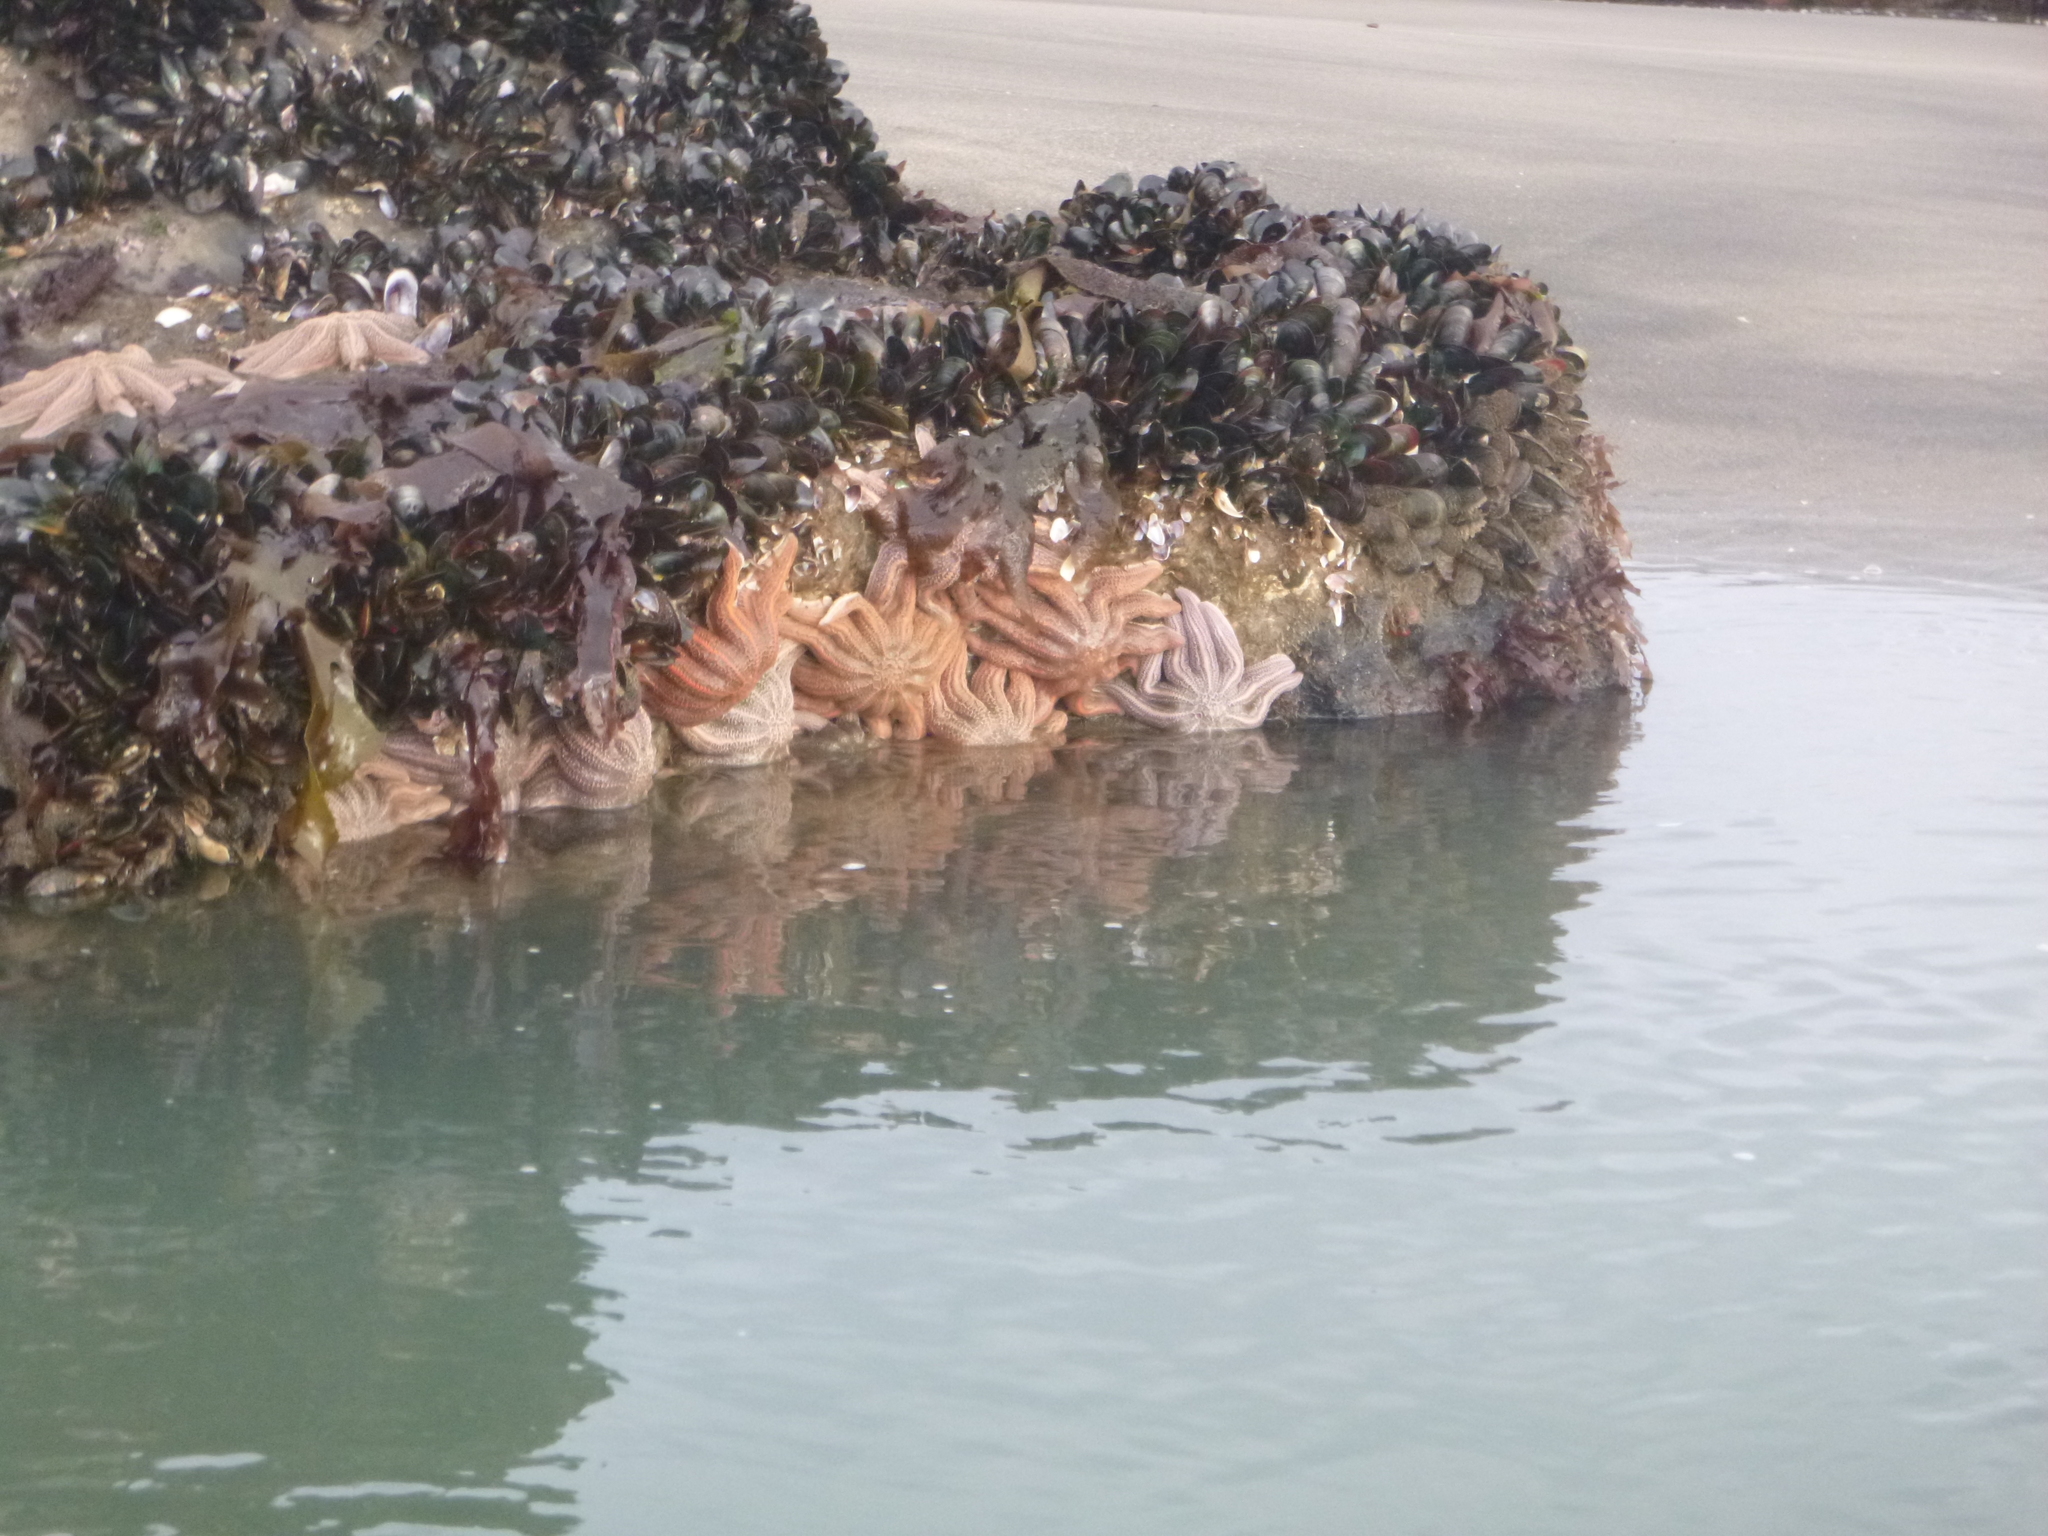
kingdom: Animalia
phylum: Echinodermata
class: Asteroidea
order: Forcipulatida
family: Stichasteridae
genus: Stichaster
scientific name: Stichaster australis
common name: Reef starfish
